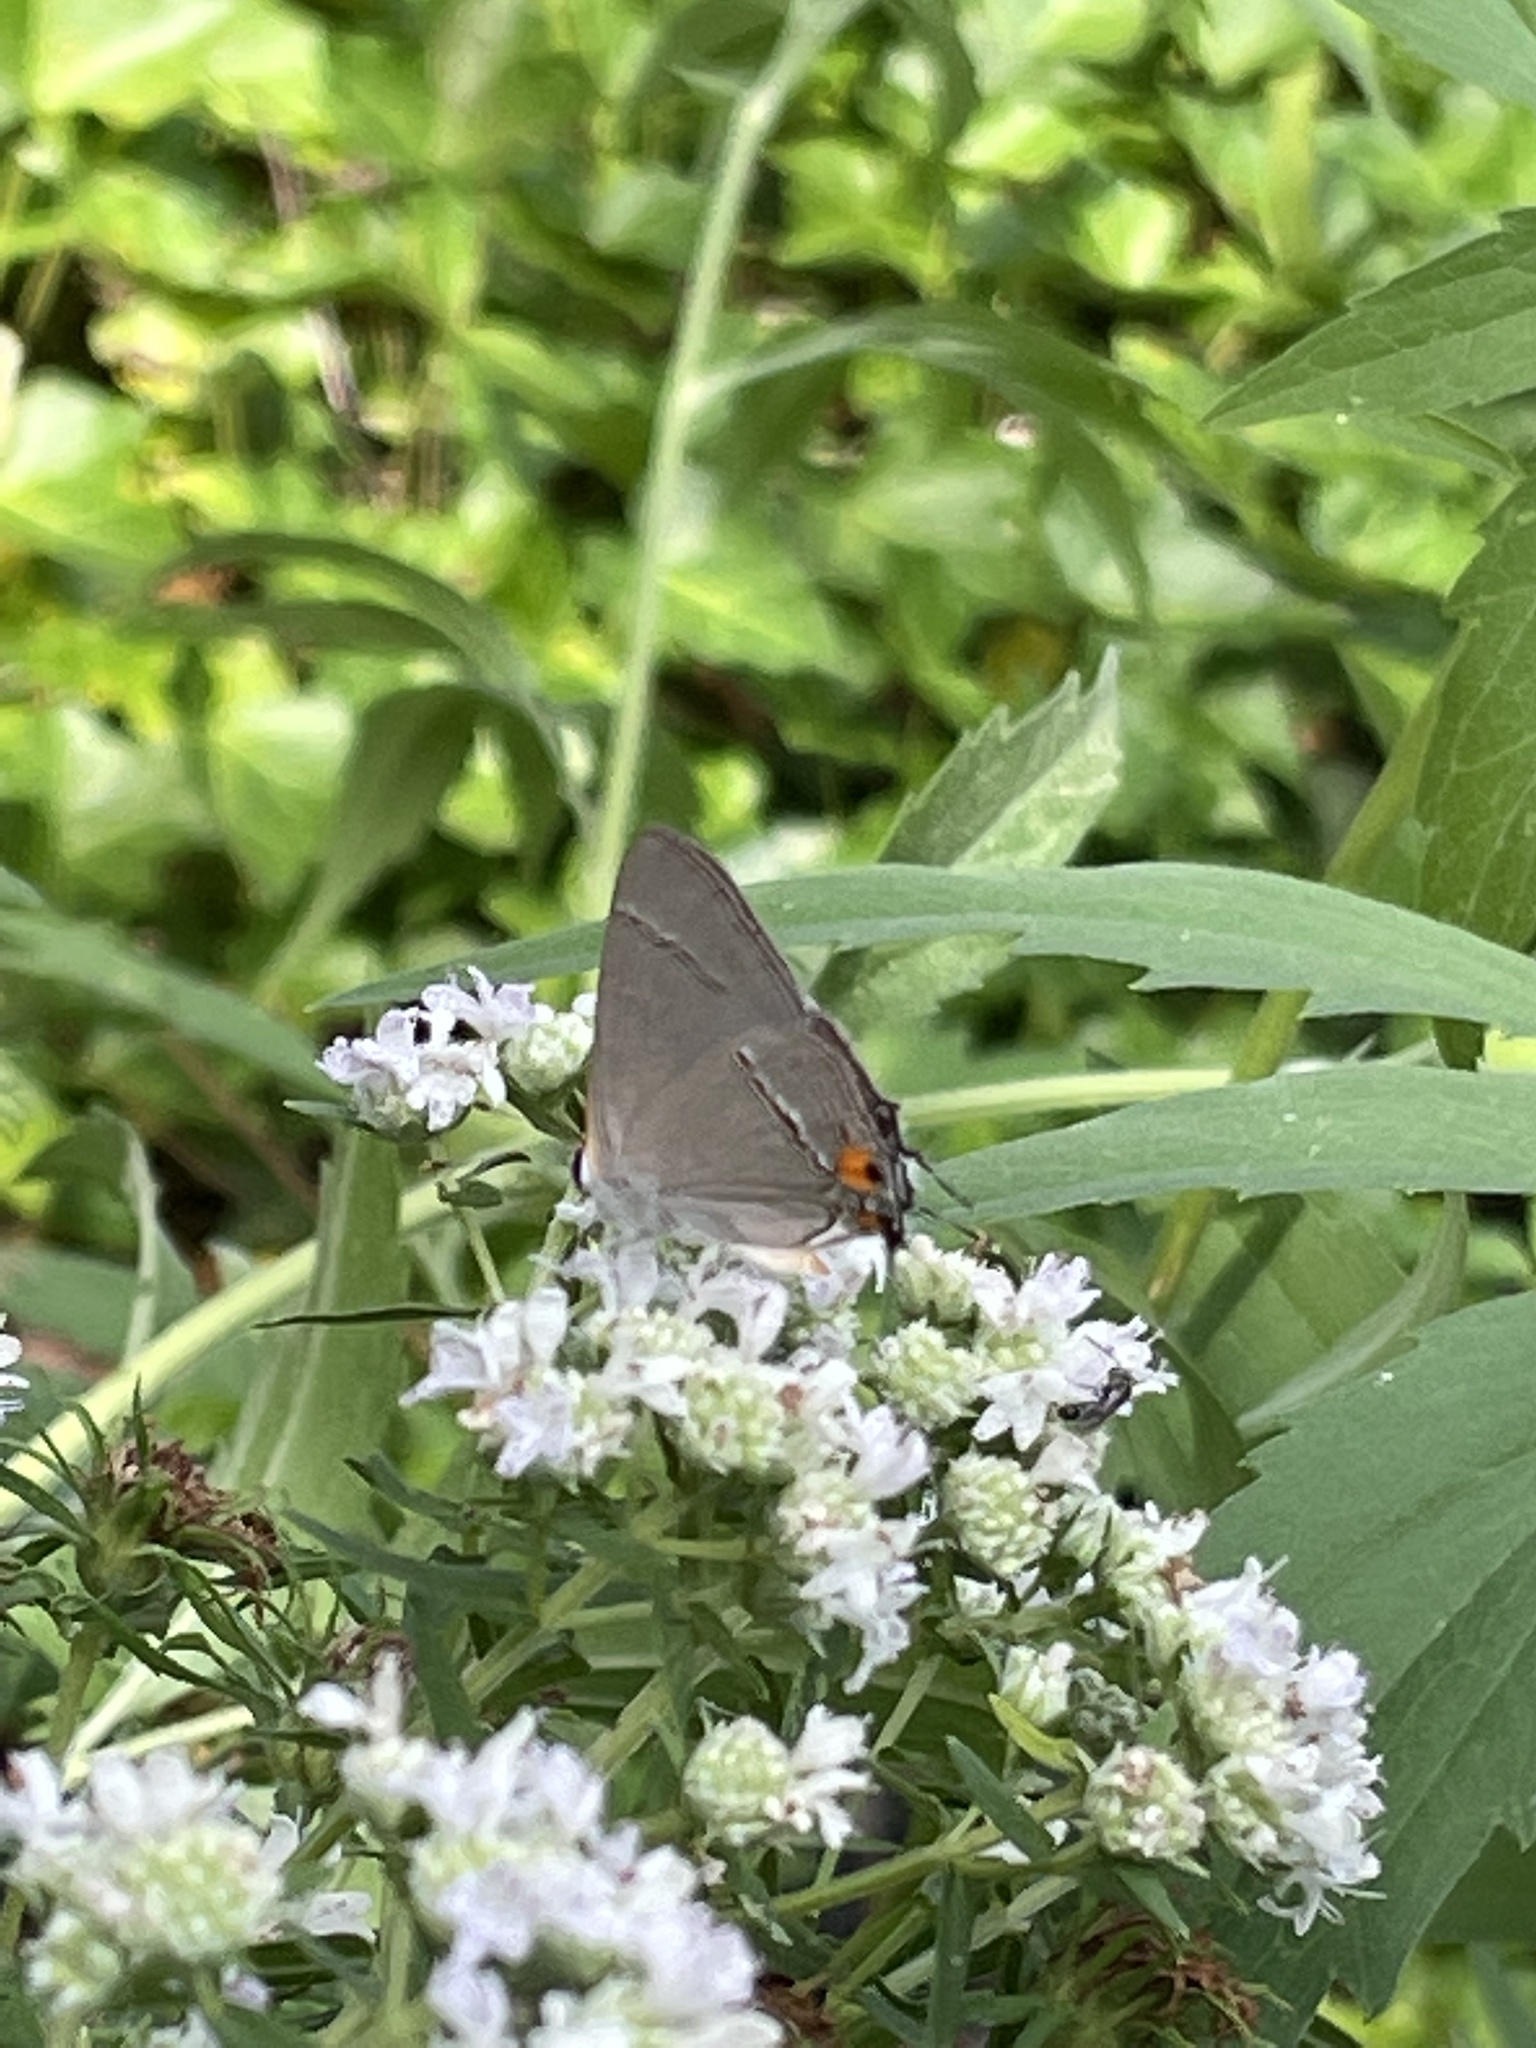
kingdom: Animalia
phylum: Arthropoda
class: Insecta
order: Lepidoptera
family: Lycaenidae
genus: Strymon
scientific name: Strymon melinus
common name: Gray hairstreak
